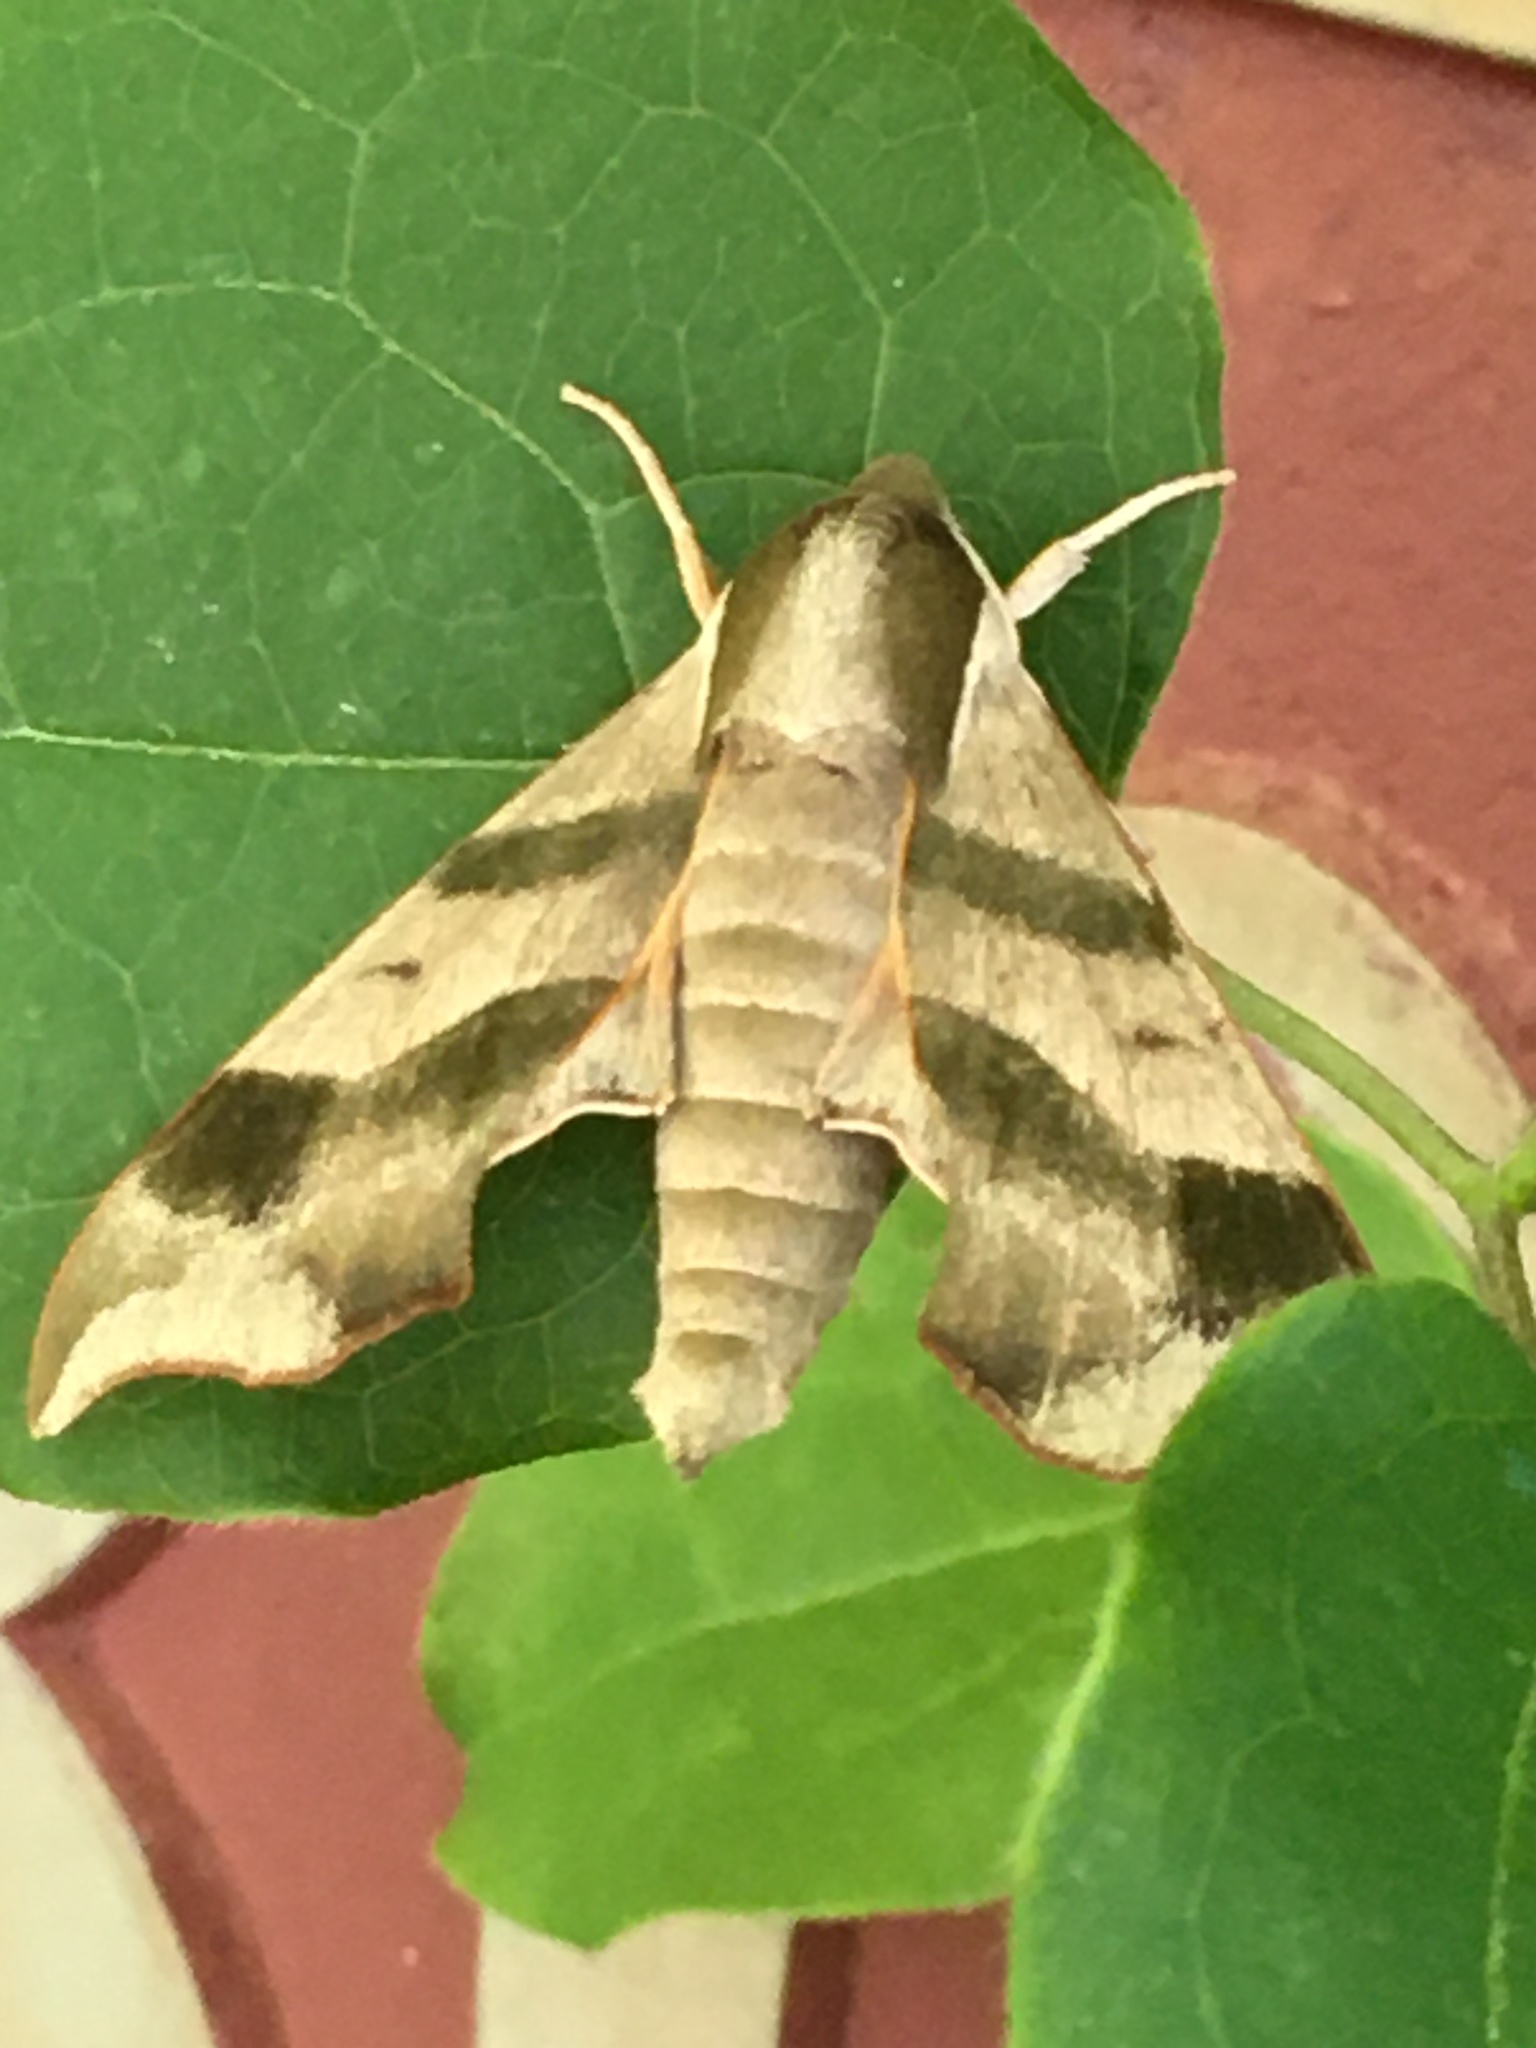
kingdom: Animalia
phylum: Arthropoda
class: Insecta
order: Lepidoptera
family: Sphingidae
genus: Darapsa
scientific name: Darapsa myron
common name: Hog sphinx
